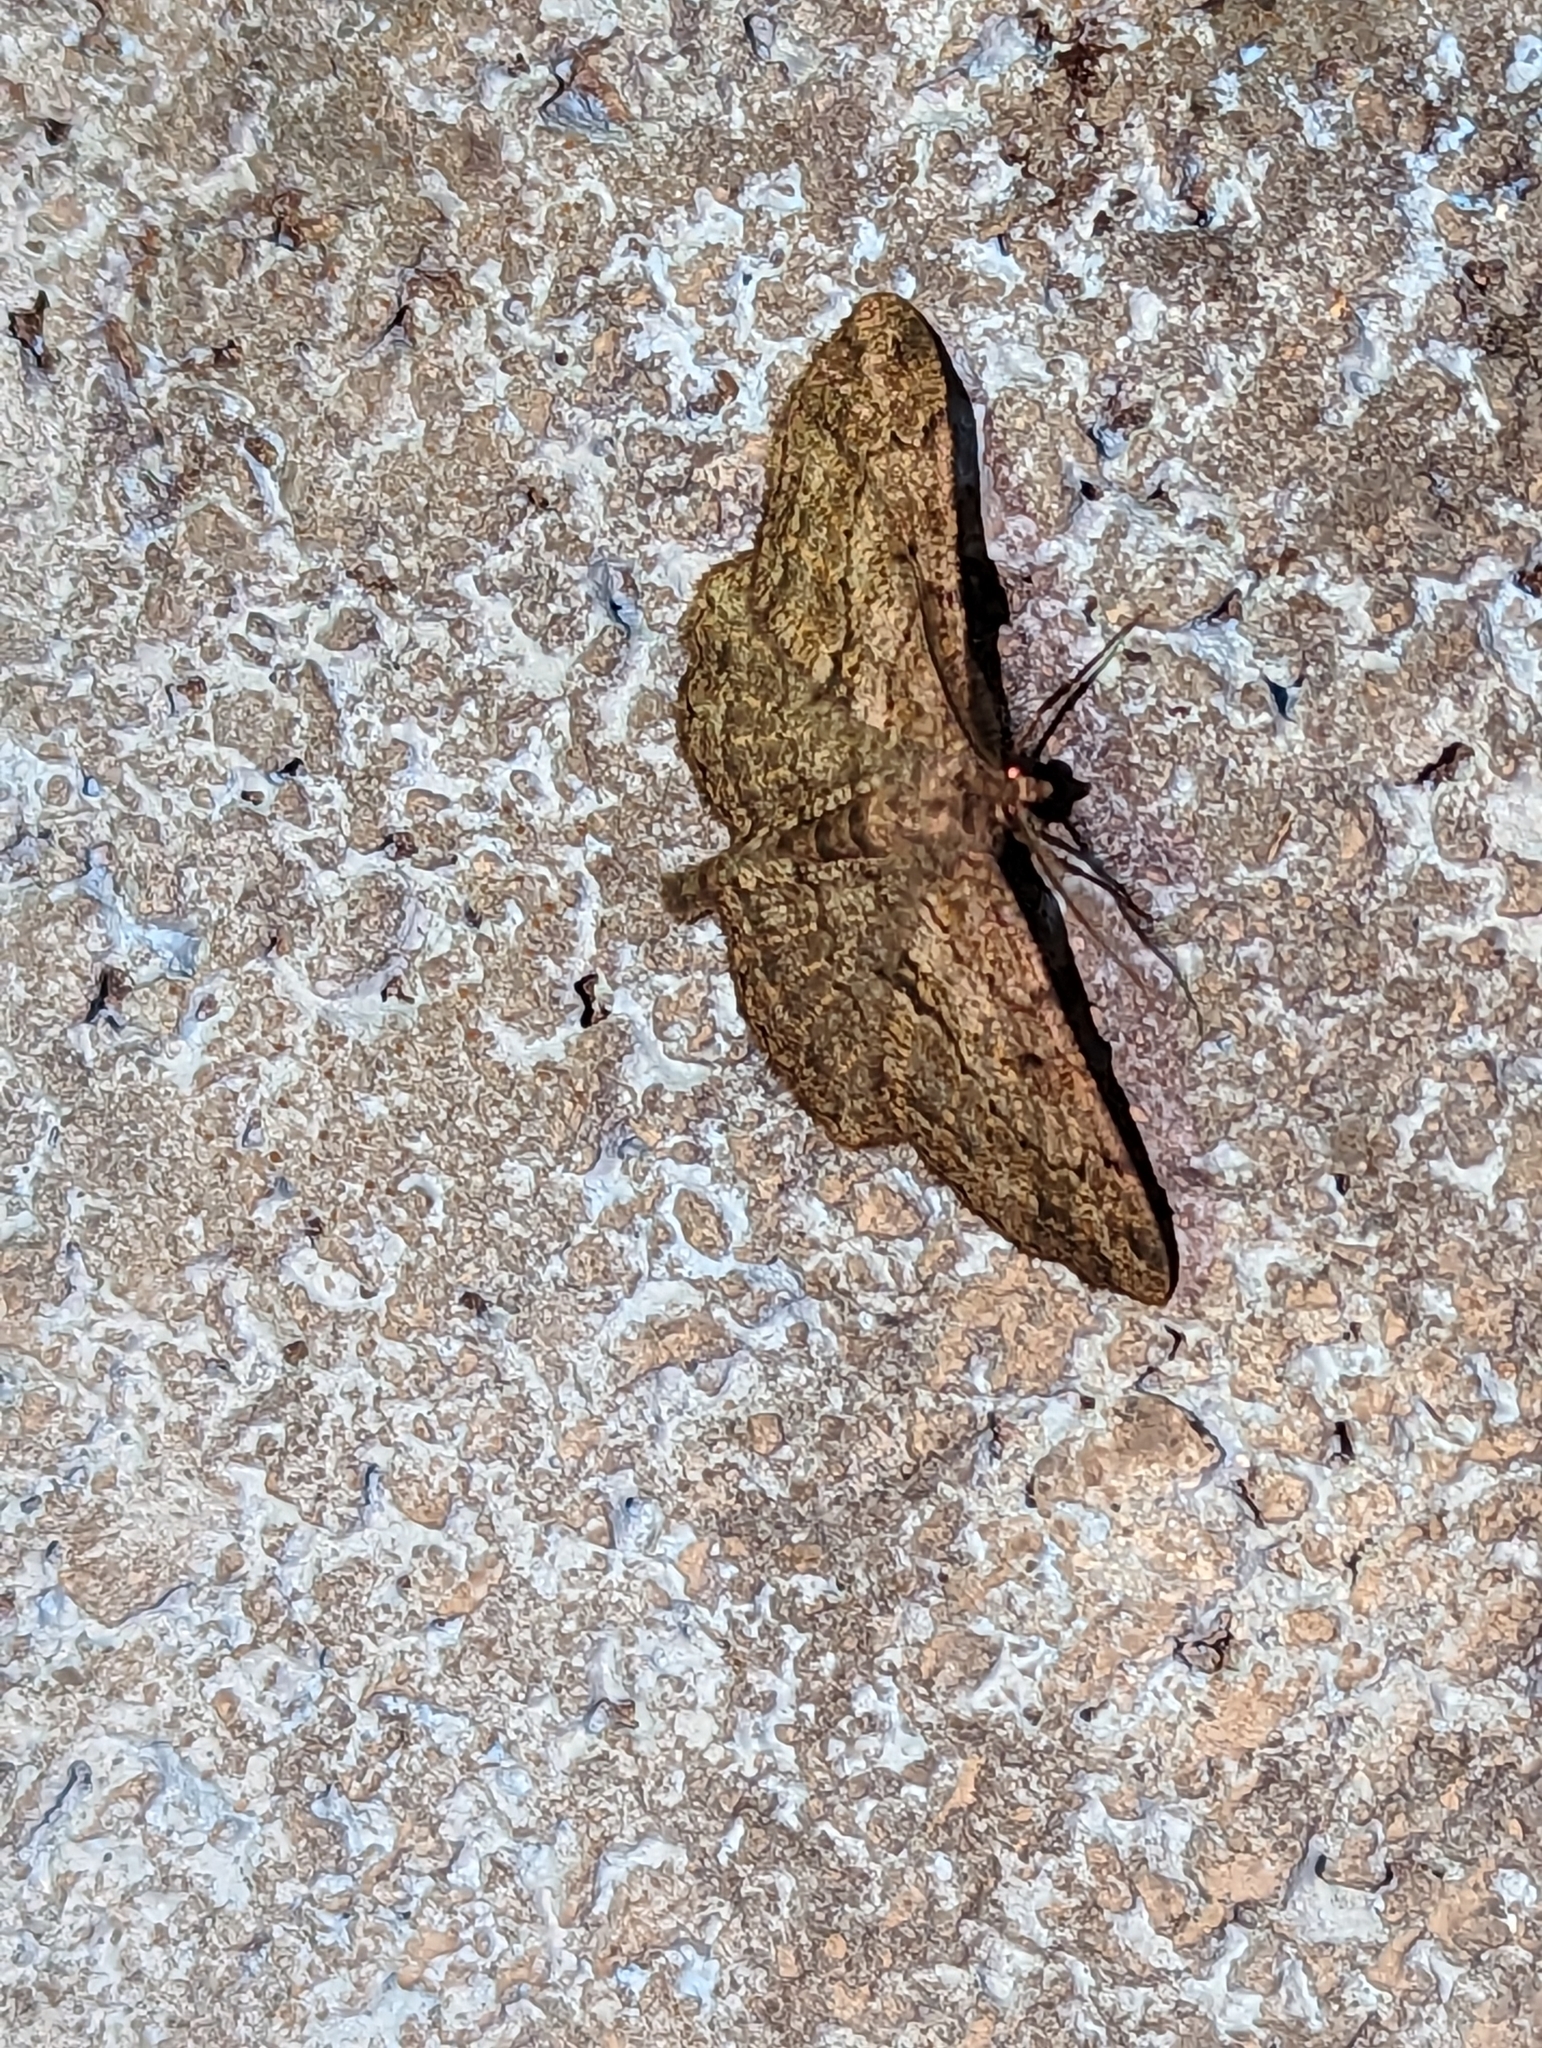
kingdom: Animalia
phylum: Arthropoda
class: Insecta
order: Lepidoptera
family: Geometridae
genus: Peribatodes
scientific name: Peribatodes rhomboidaria
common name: Willow beauty
